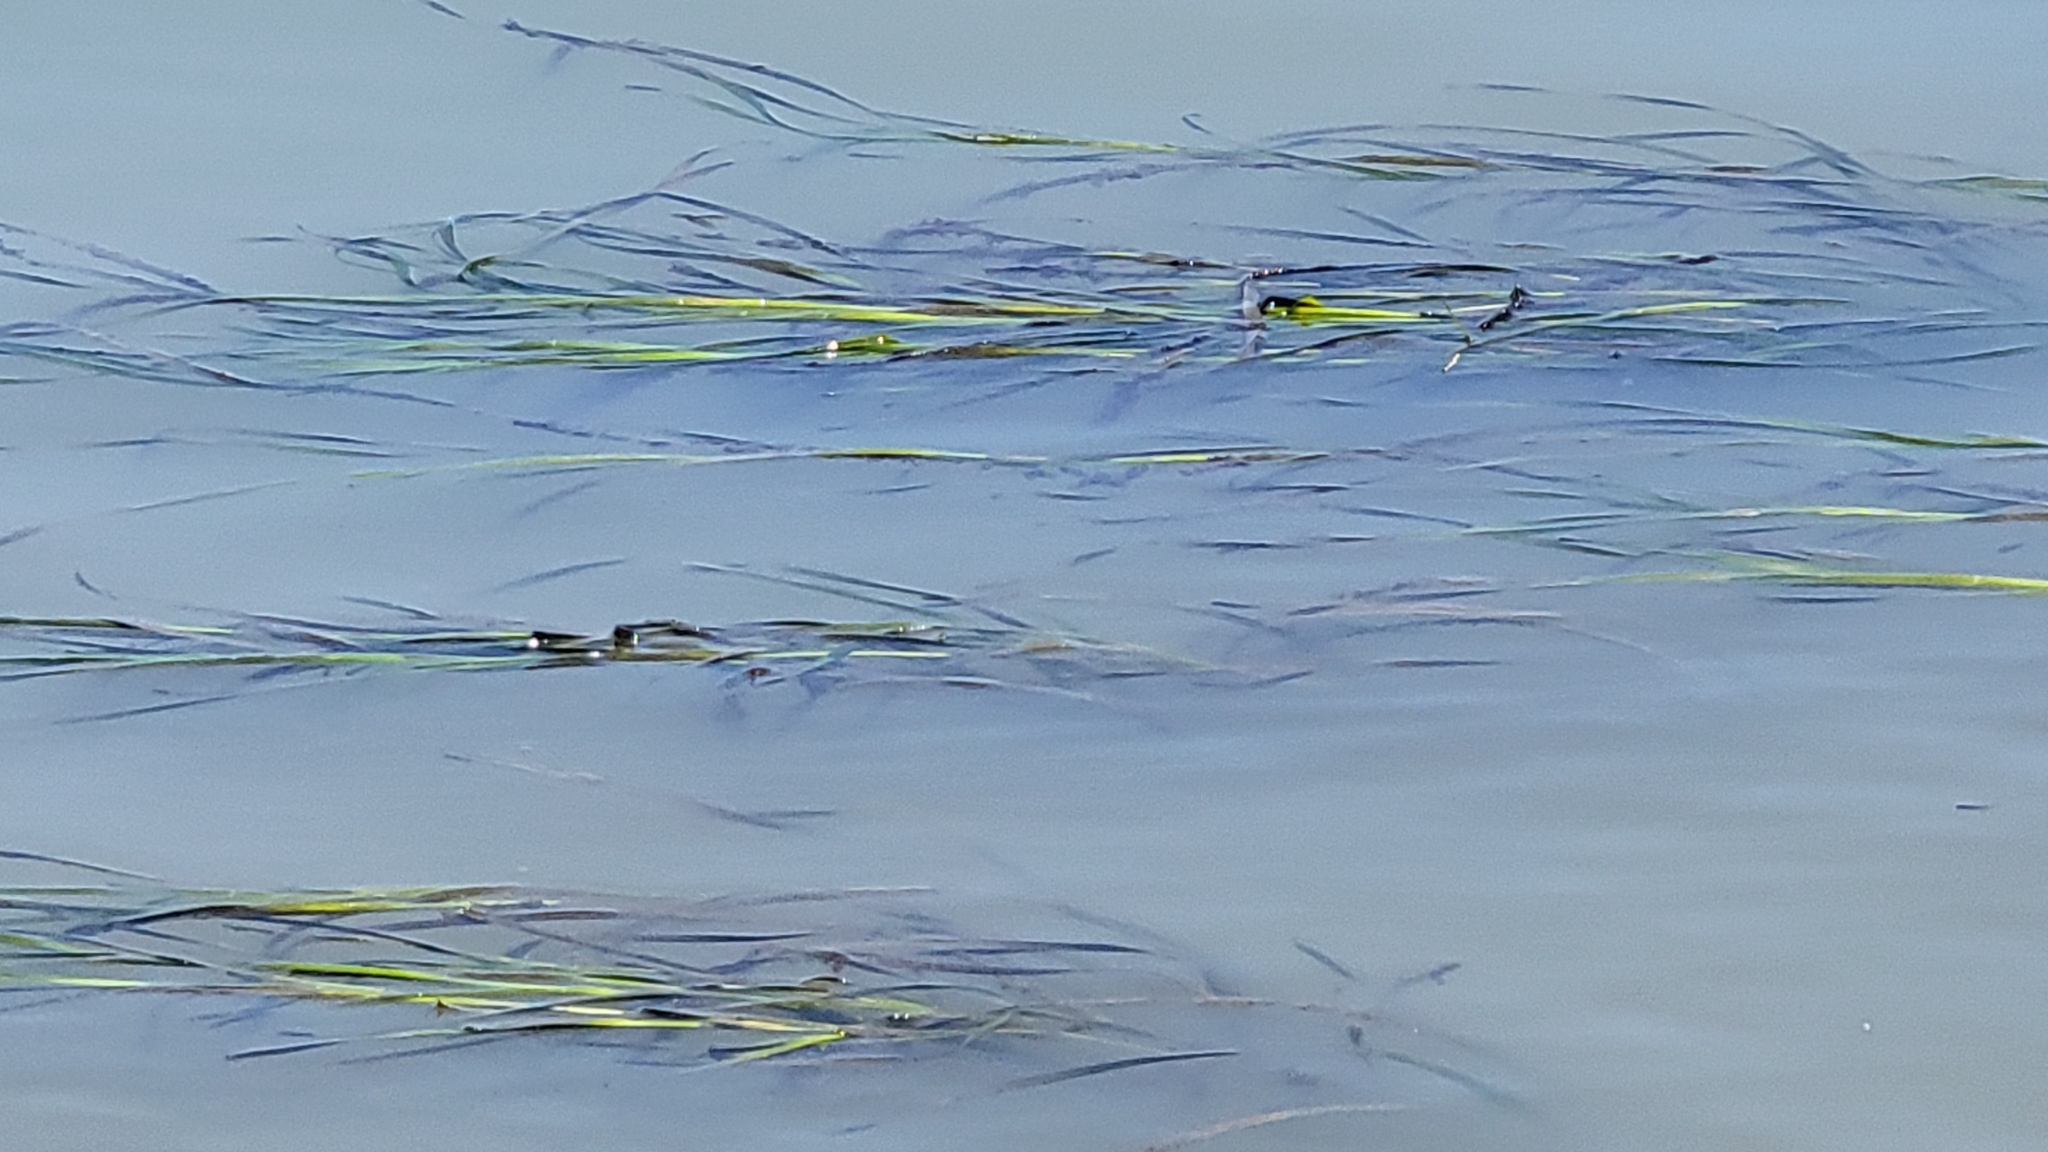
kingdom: Plantae
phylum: Tracheophyta
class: Liliopsida
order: Alismatales
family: Zosteraceae
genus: Zostera
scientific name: Zostera marina
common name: Eelgrass
